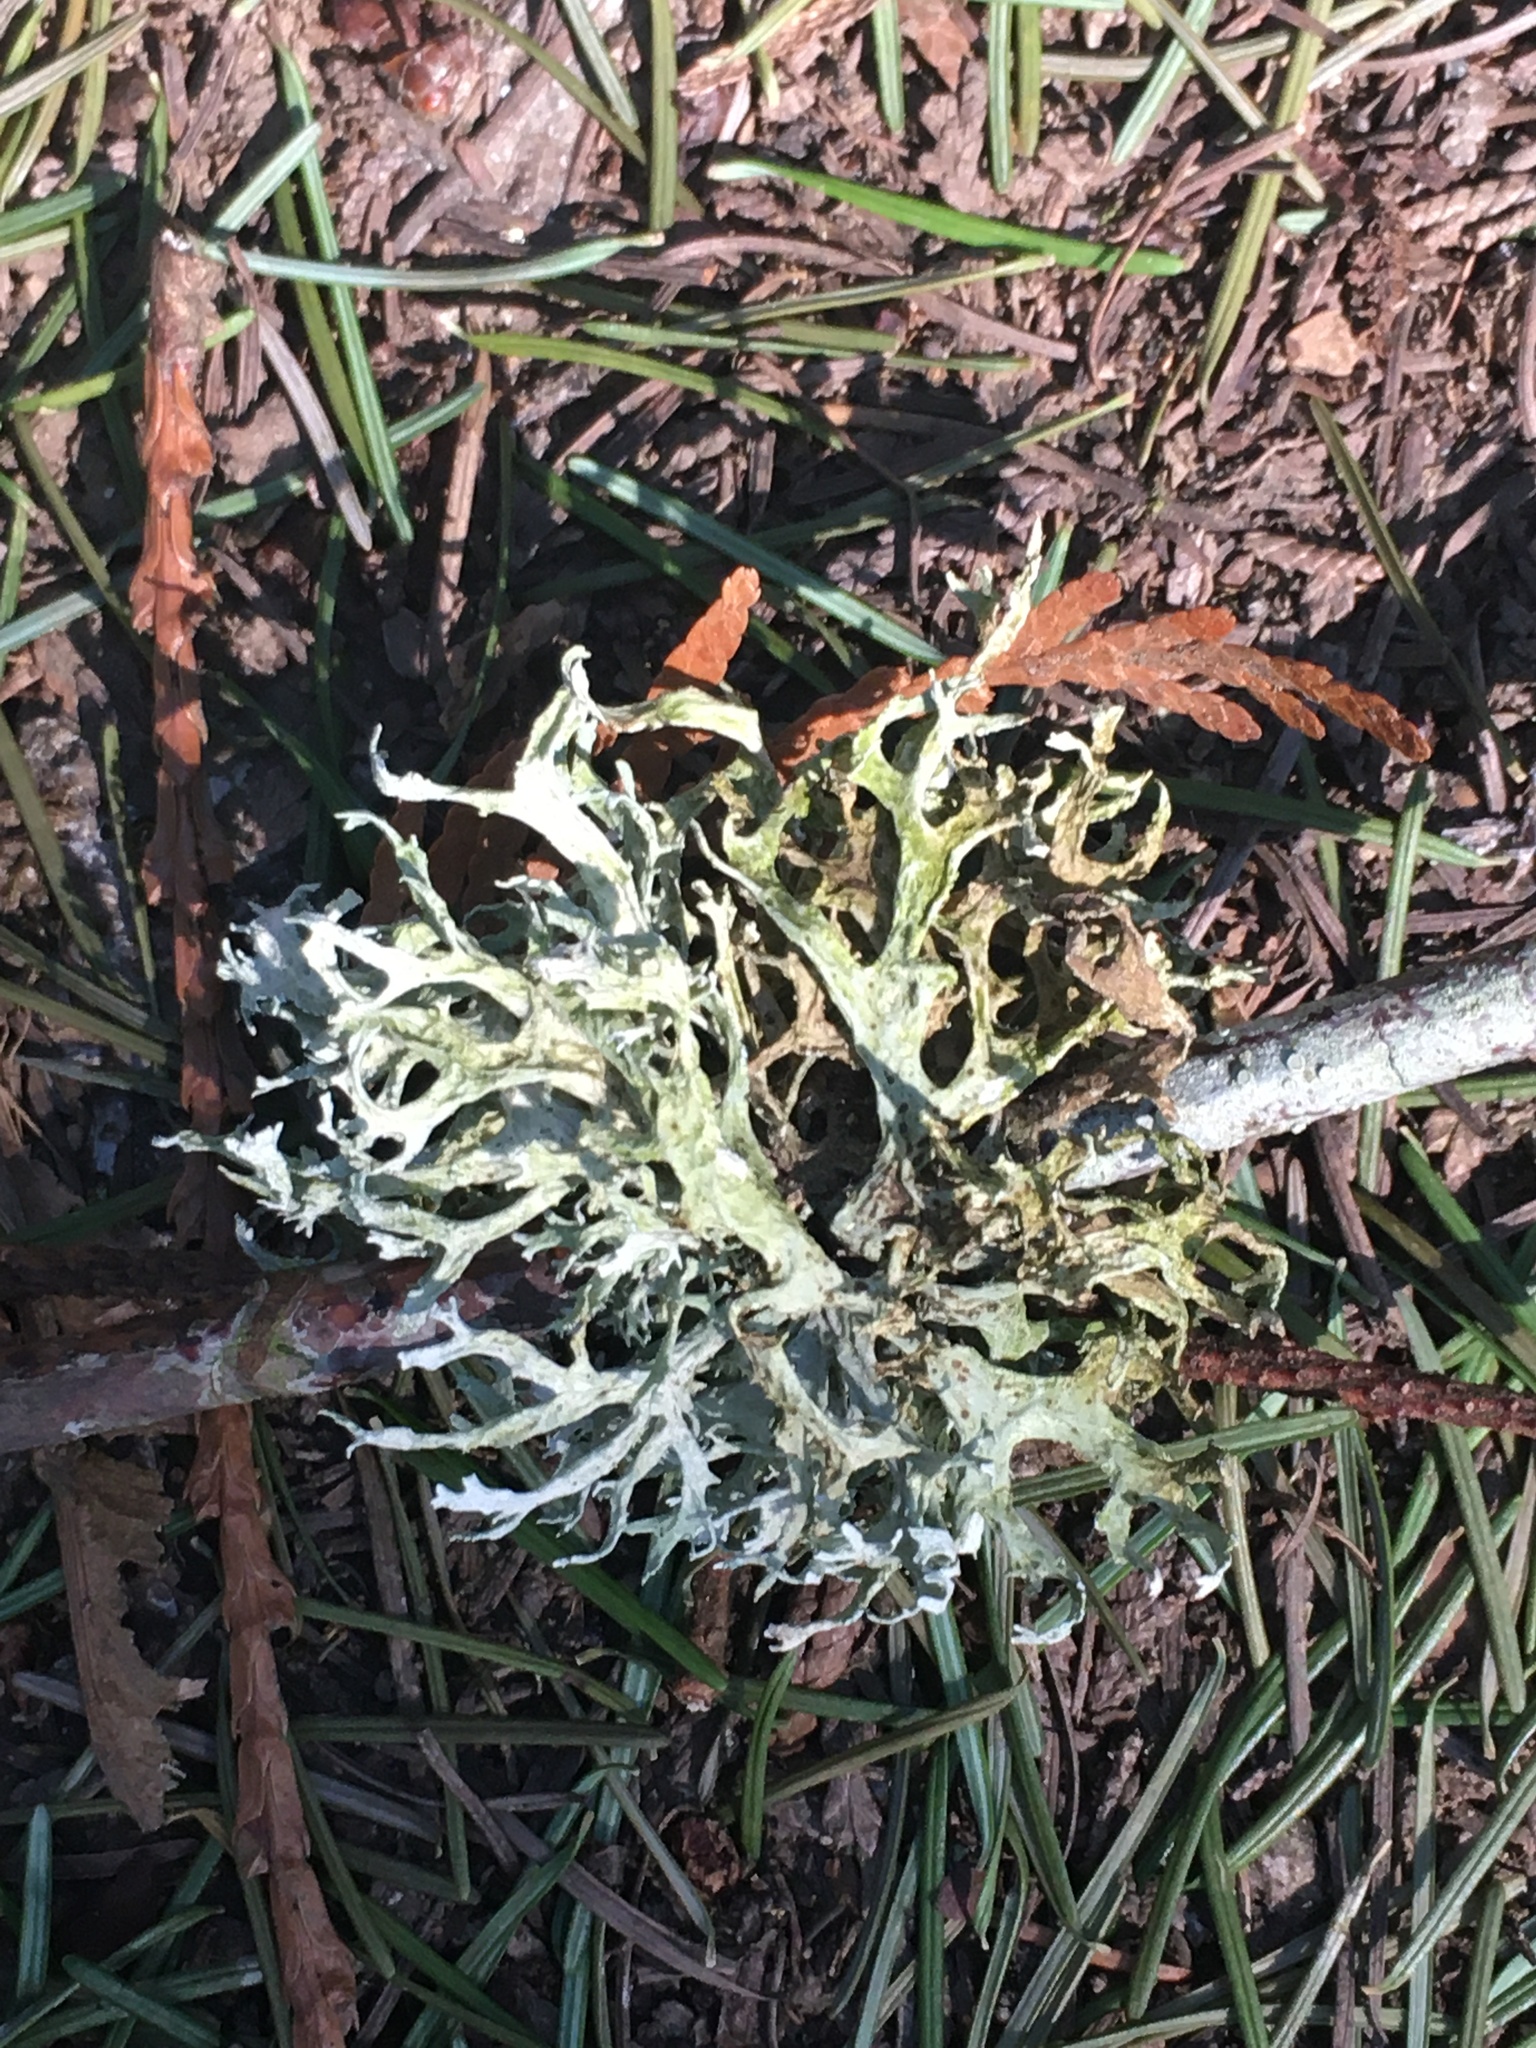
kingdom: Fungi
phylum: Ascomycota
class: Lecanoromycetes
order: Lecanorales
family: Parmeliaceae
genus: Evernia
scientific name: Evernia prunastri
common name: Oak moss
